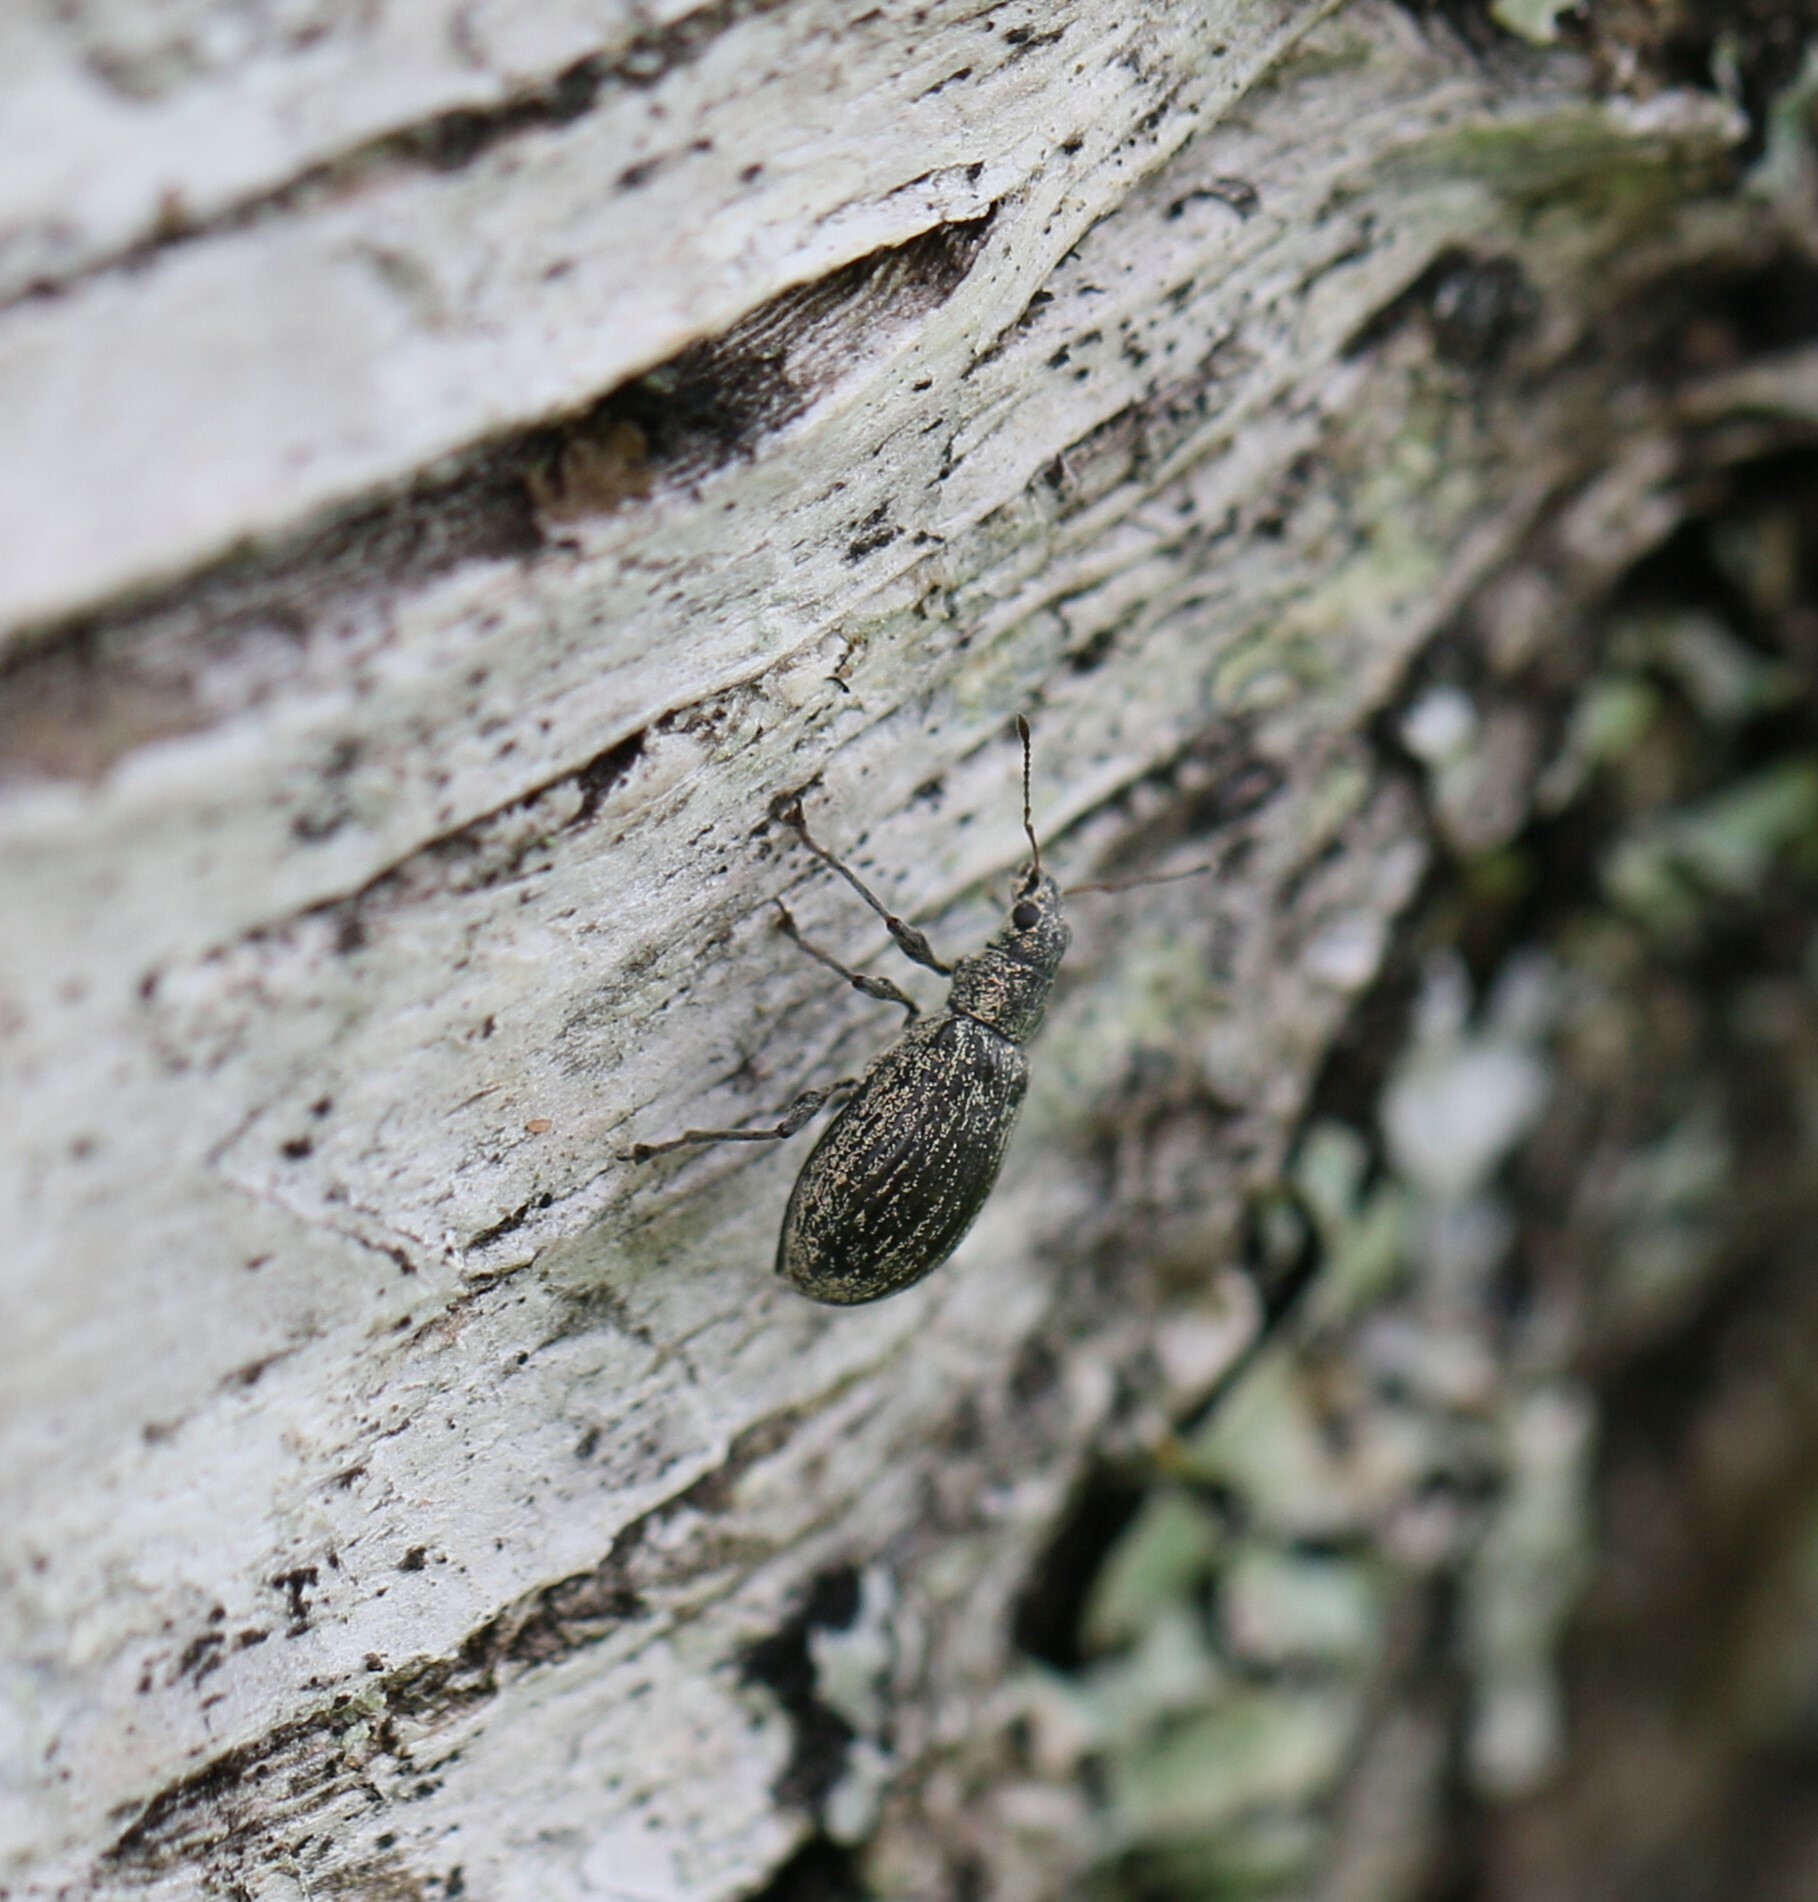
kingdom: Animalia
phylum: Arthropoda
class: Insecta
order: Coleoptera
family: Curculionidae
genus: Polydrusus
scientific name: Polydrusus cervinus
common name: Weevil
